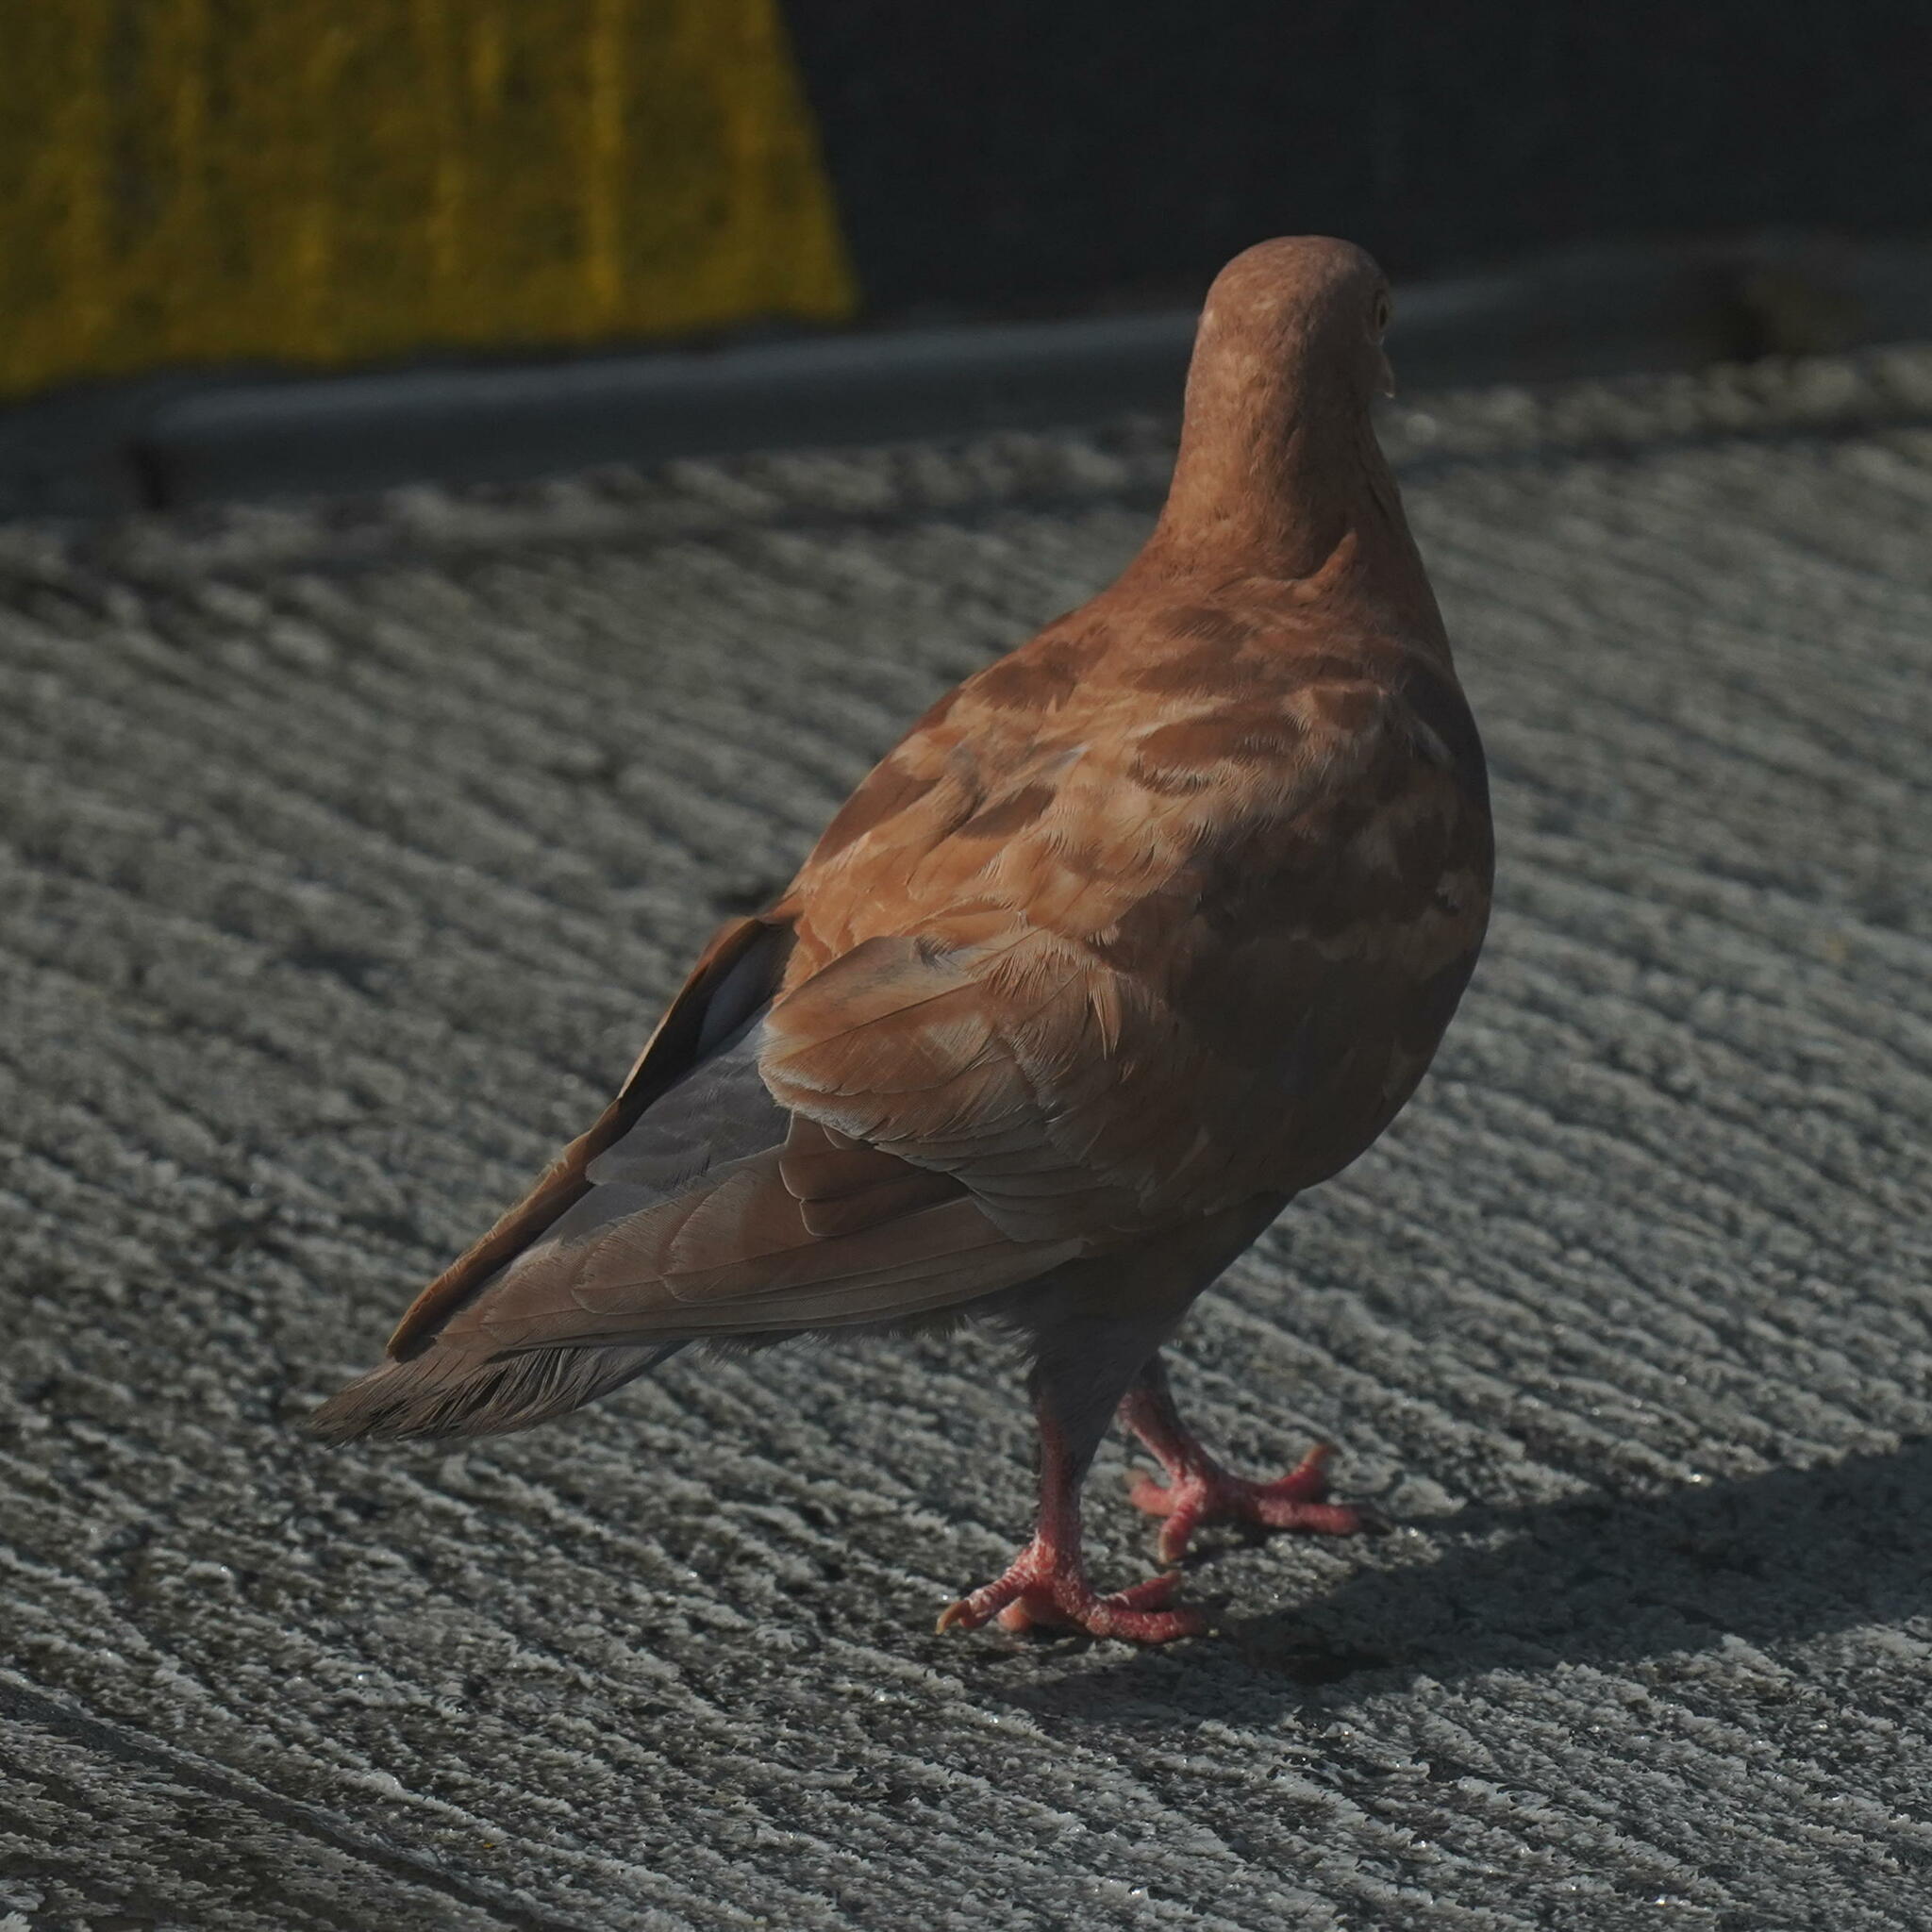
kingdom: Animalia
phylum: Chordata
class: Aves
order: Columbiformes
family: Columbidae
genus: Columba
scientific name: Columba livia
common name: Rock pigeon
